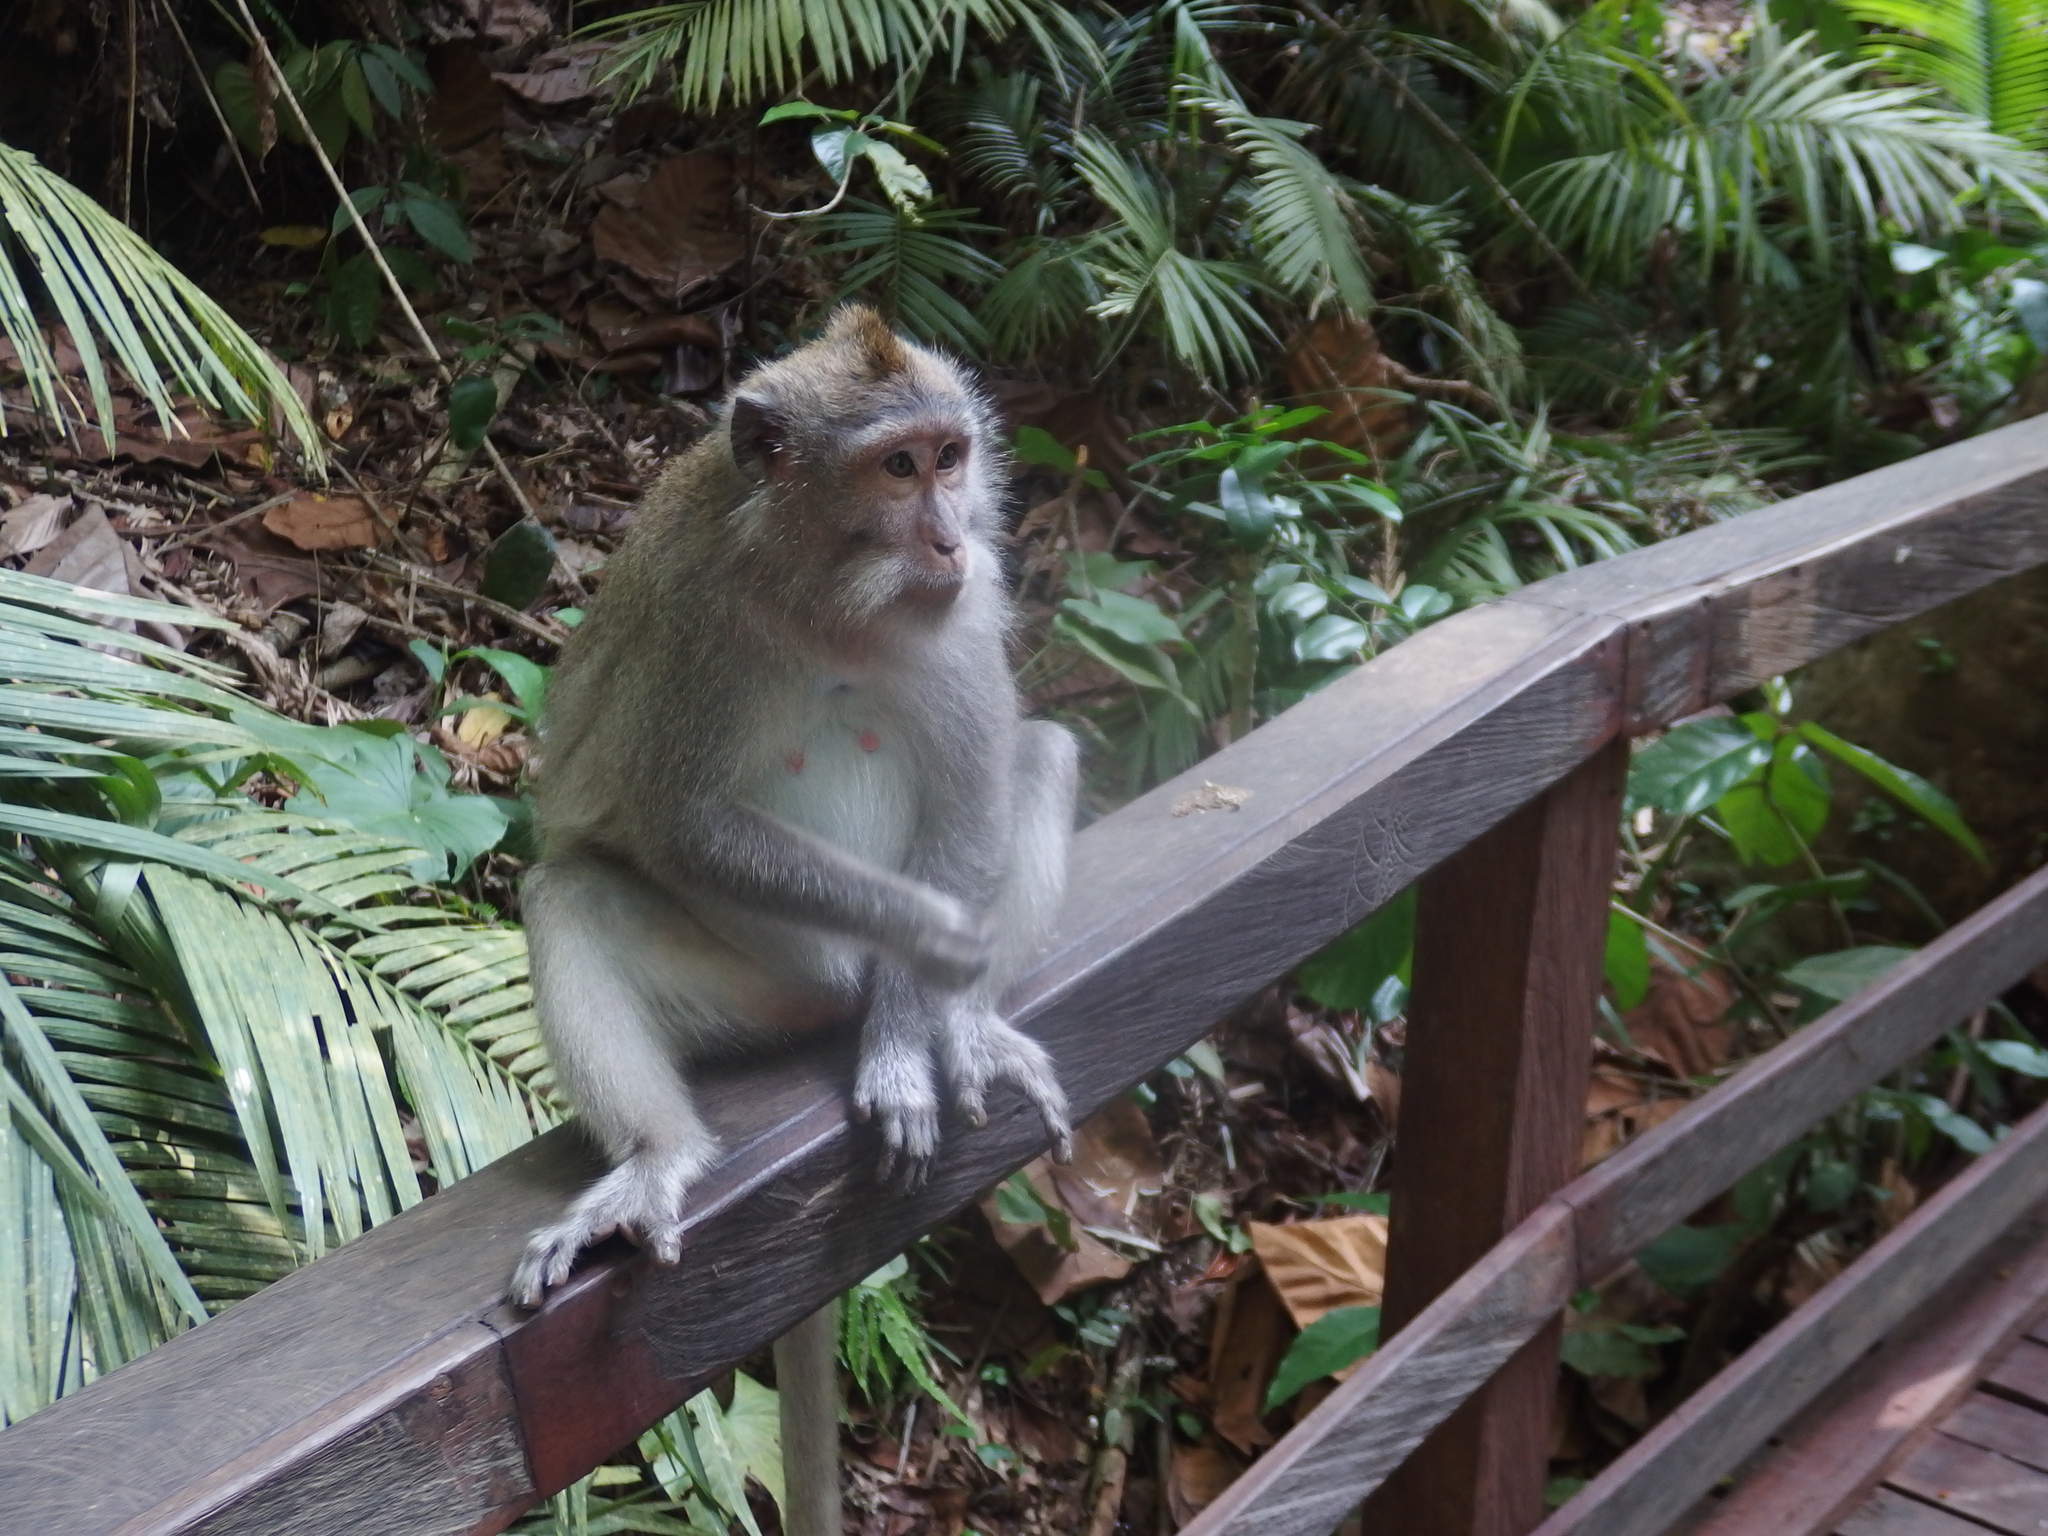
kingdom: Animalia
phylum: Chordata
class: Mammalia
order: Primates
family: Cercopithecidae
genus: Macaca
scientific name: Macaca fascicularis
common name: Crab-eating macaque
